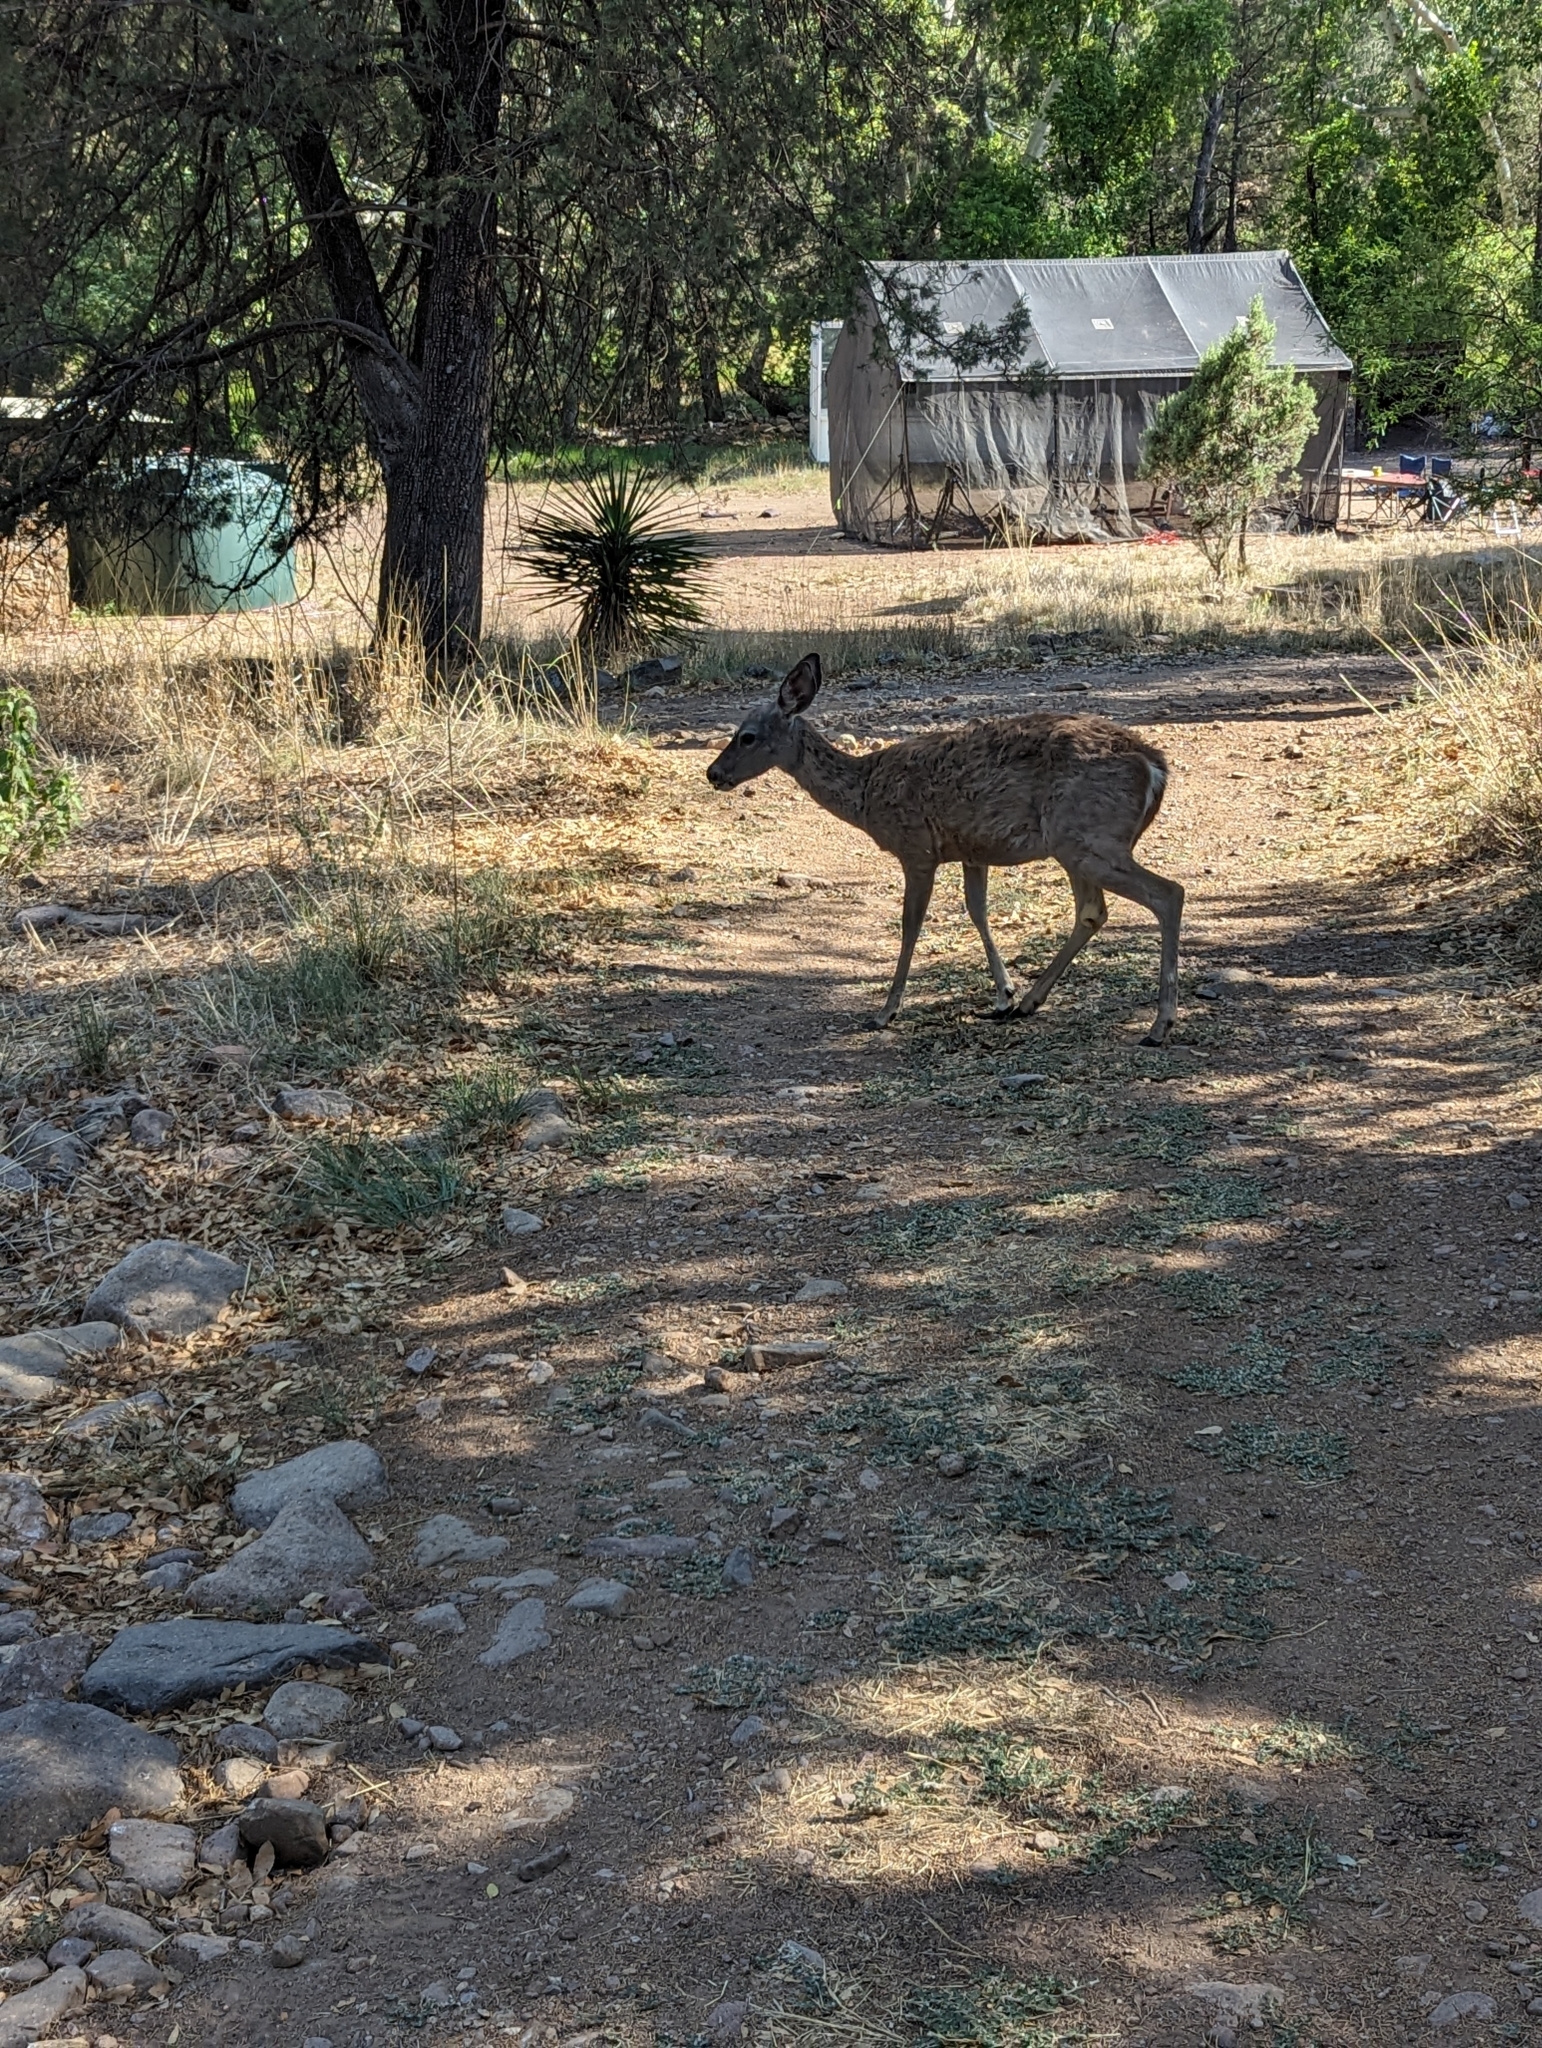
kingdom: Animalia
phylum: Chordata
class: Mammalia
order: Artiodactyla
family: Cervidae
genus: Odocoileus
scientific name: Odocoileus virginianus
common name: White-tailed deer
